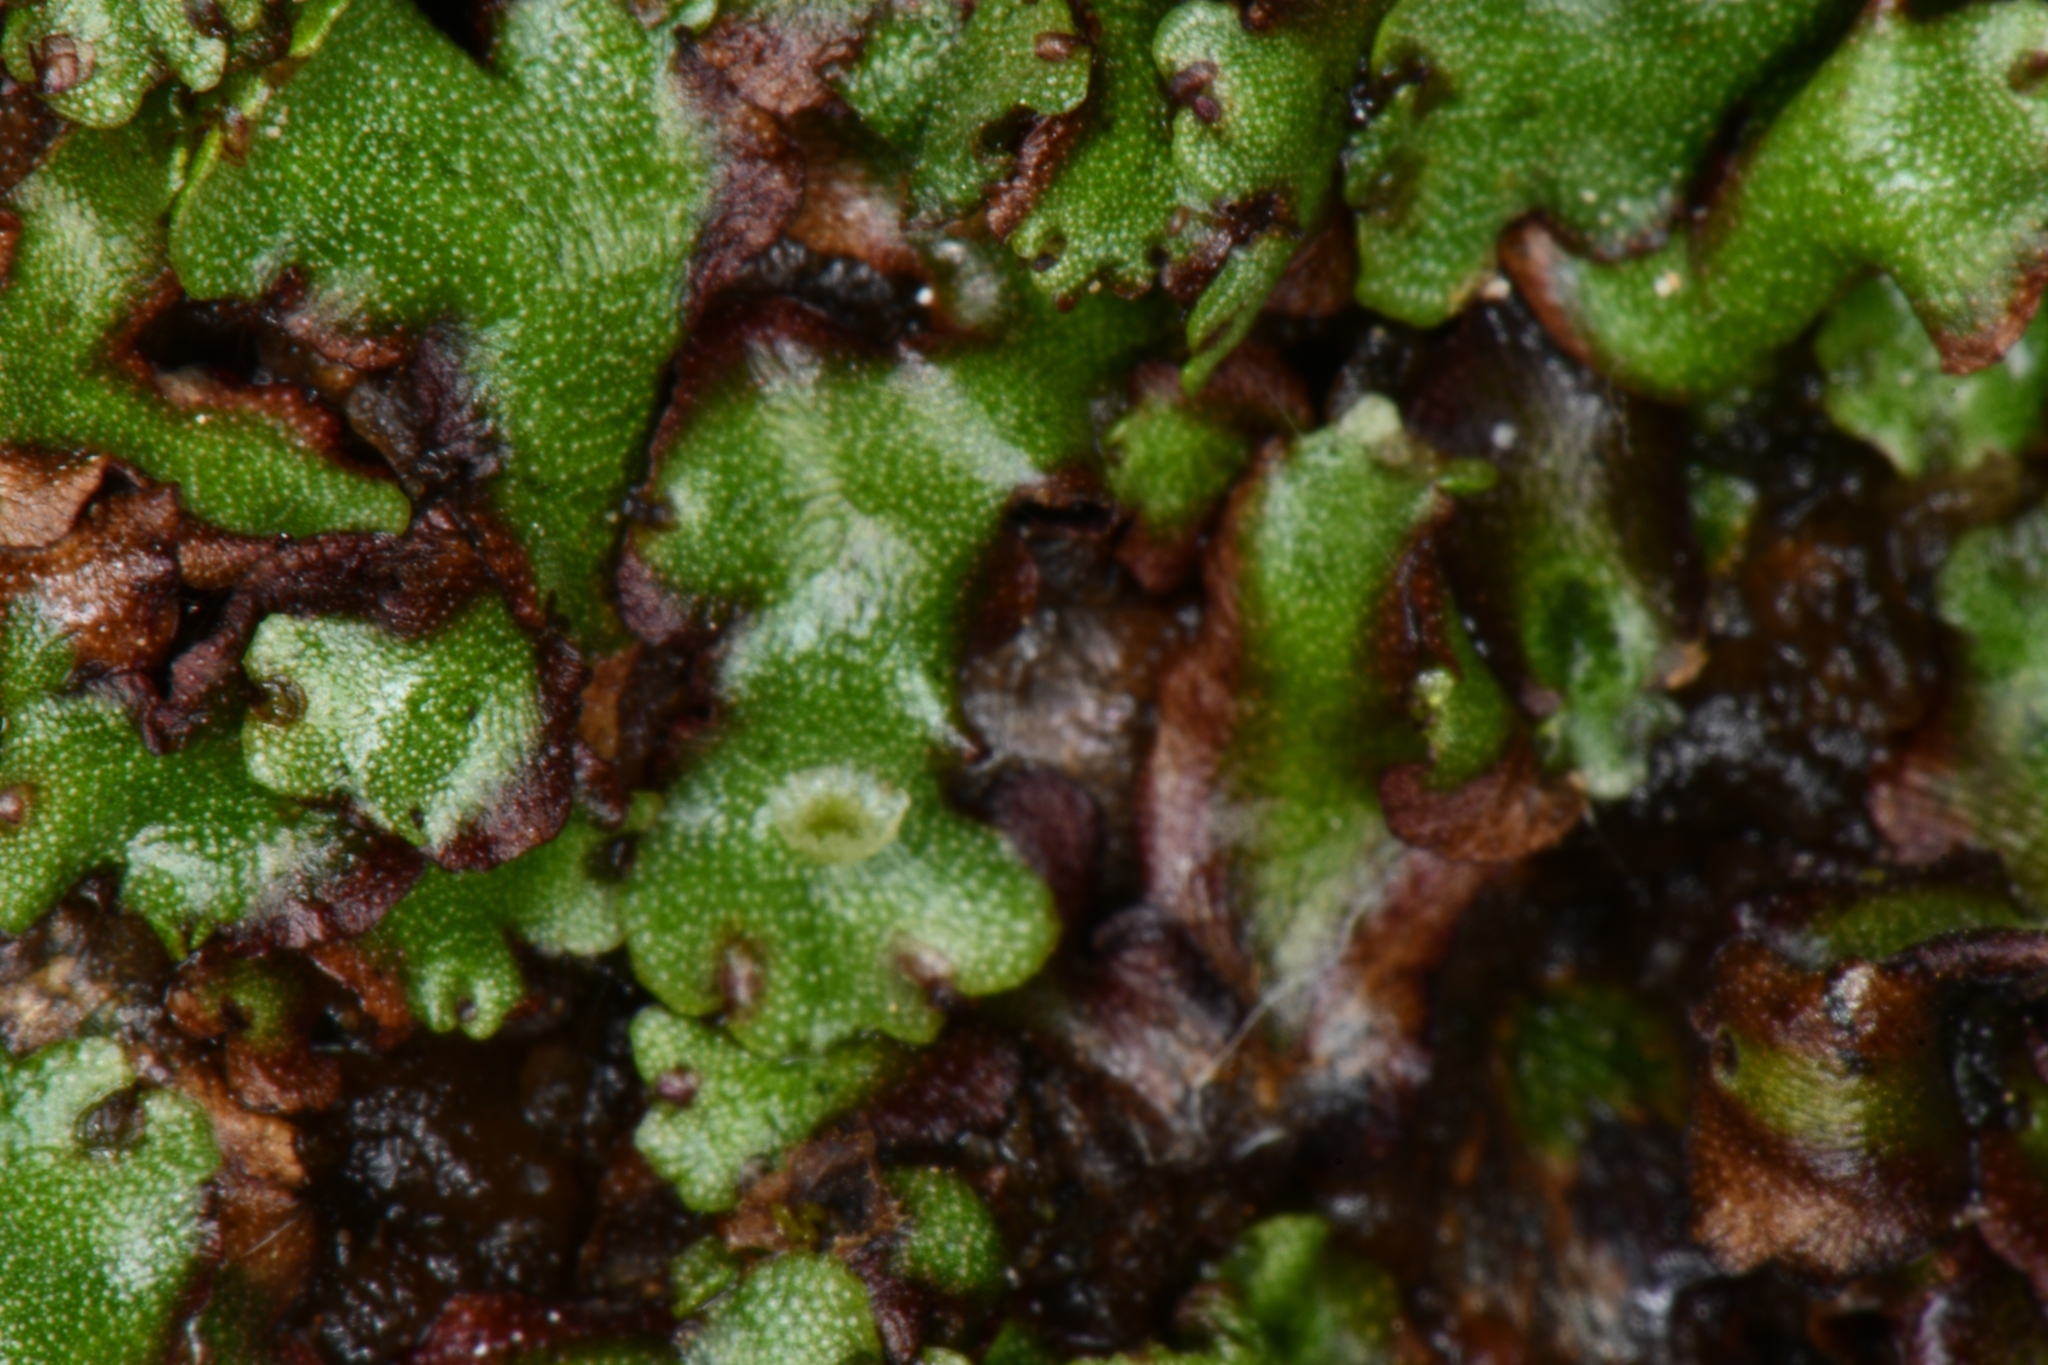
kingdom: Plantae
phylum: Marchantiophyta
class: Marchantiopsida
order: Marchantiales
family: Marchantiaceae
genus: Marchantia
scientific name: Marchantia polymorpha
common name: Common liverwort
